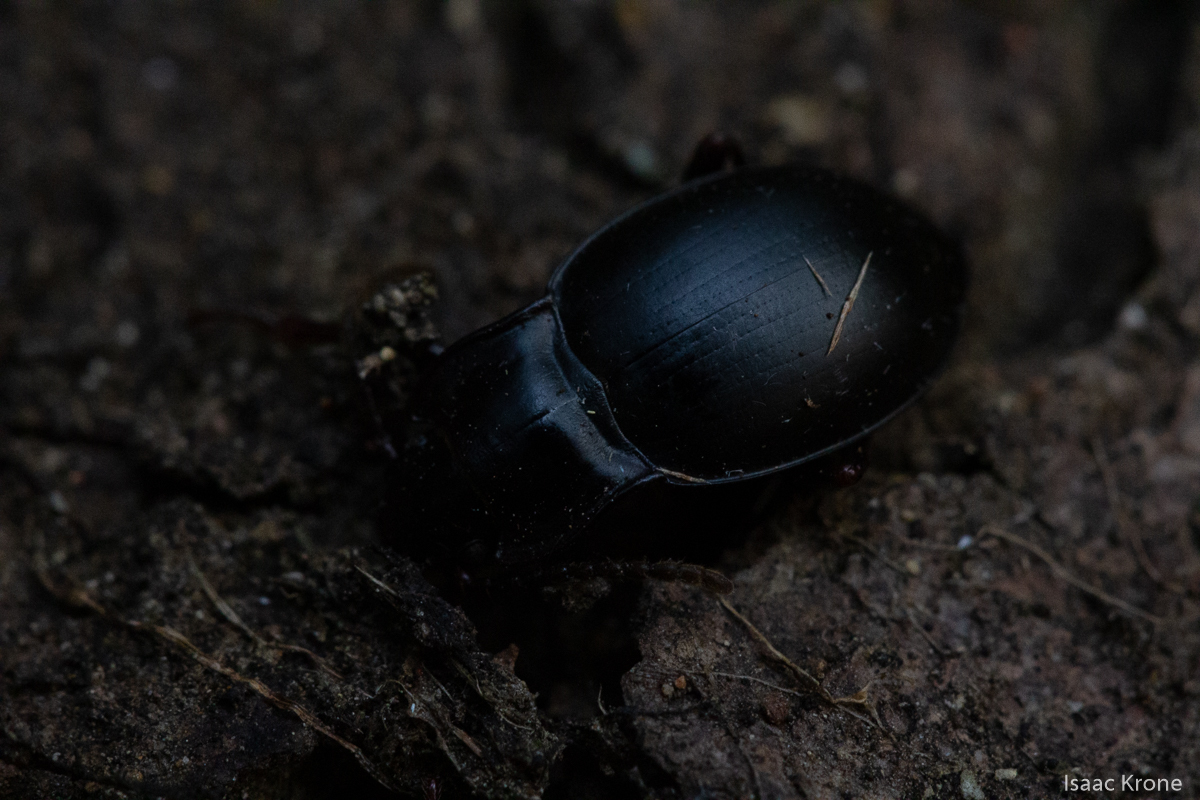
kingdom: Animalia
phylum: Arthropoda
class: Insecta
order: Coleoptera
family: Carabidae
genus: Metrius
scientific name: Metrius contractus
